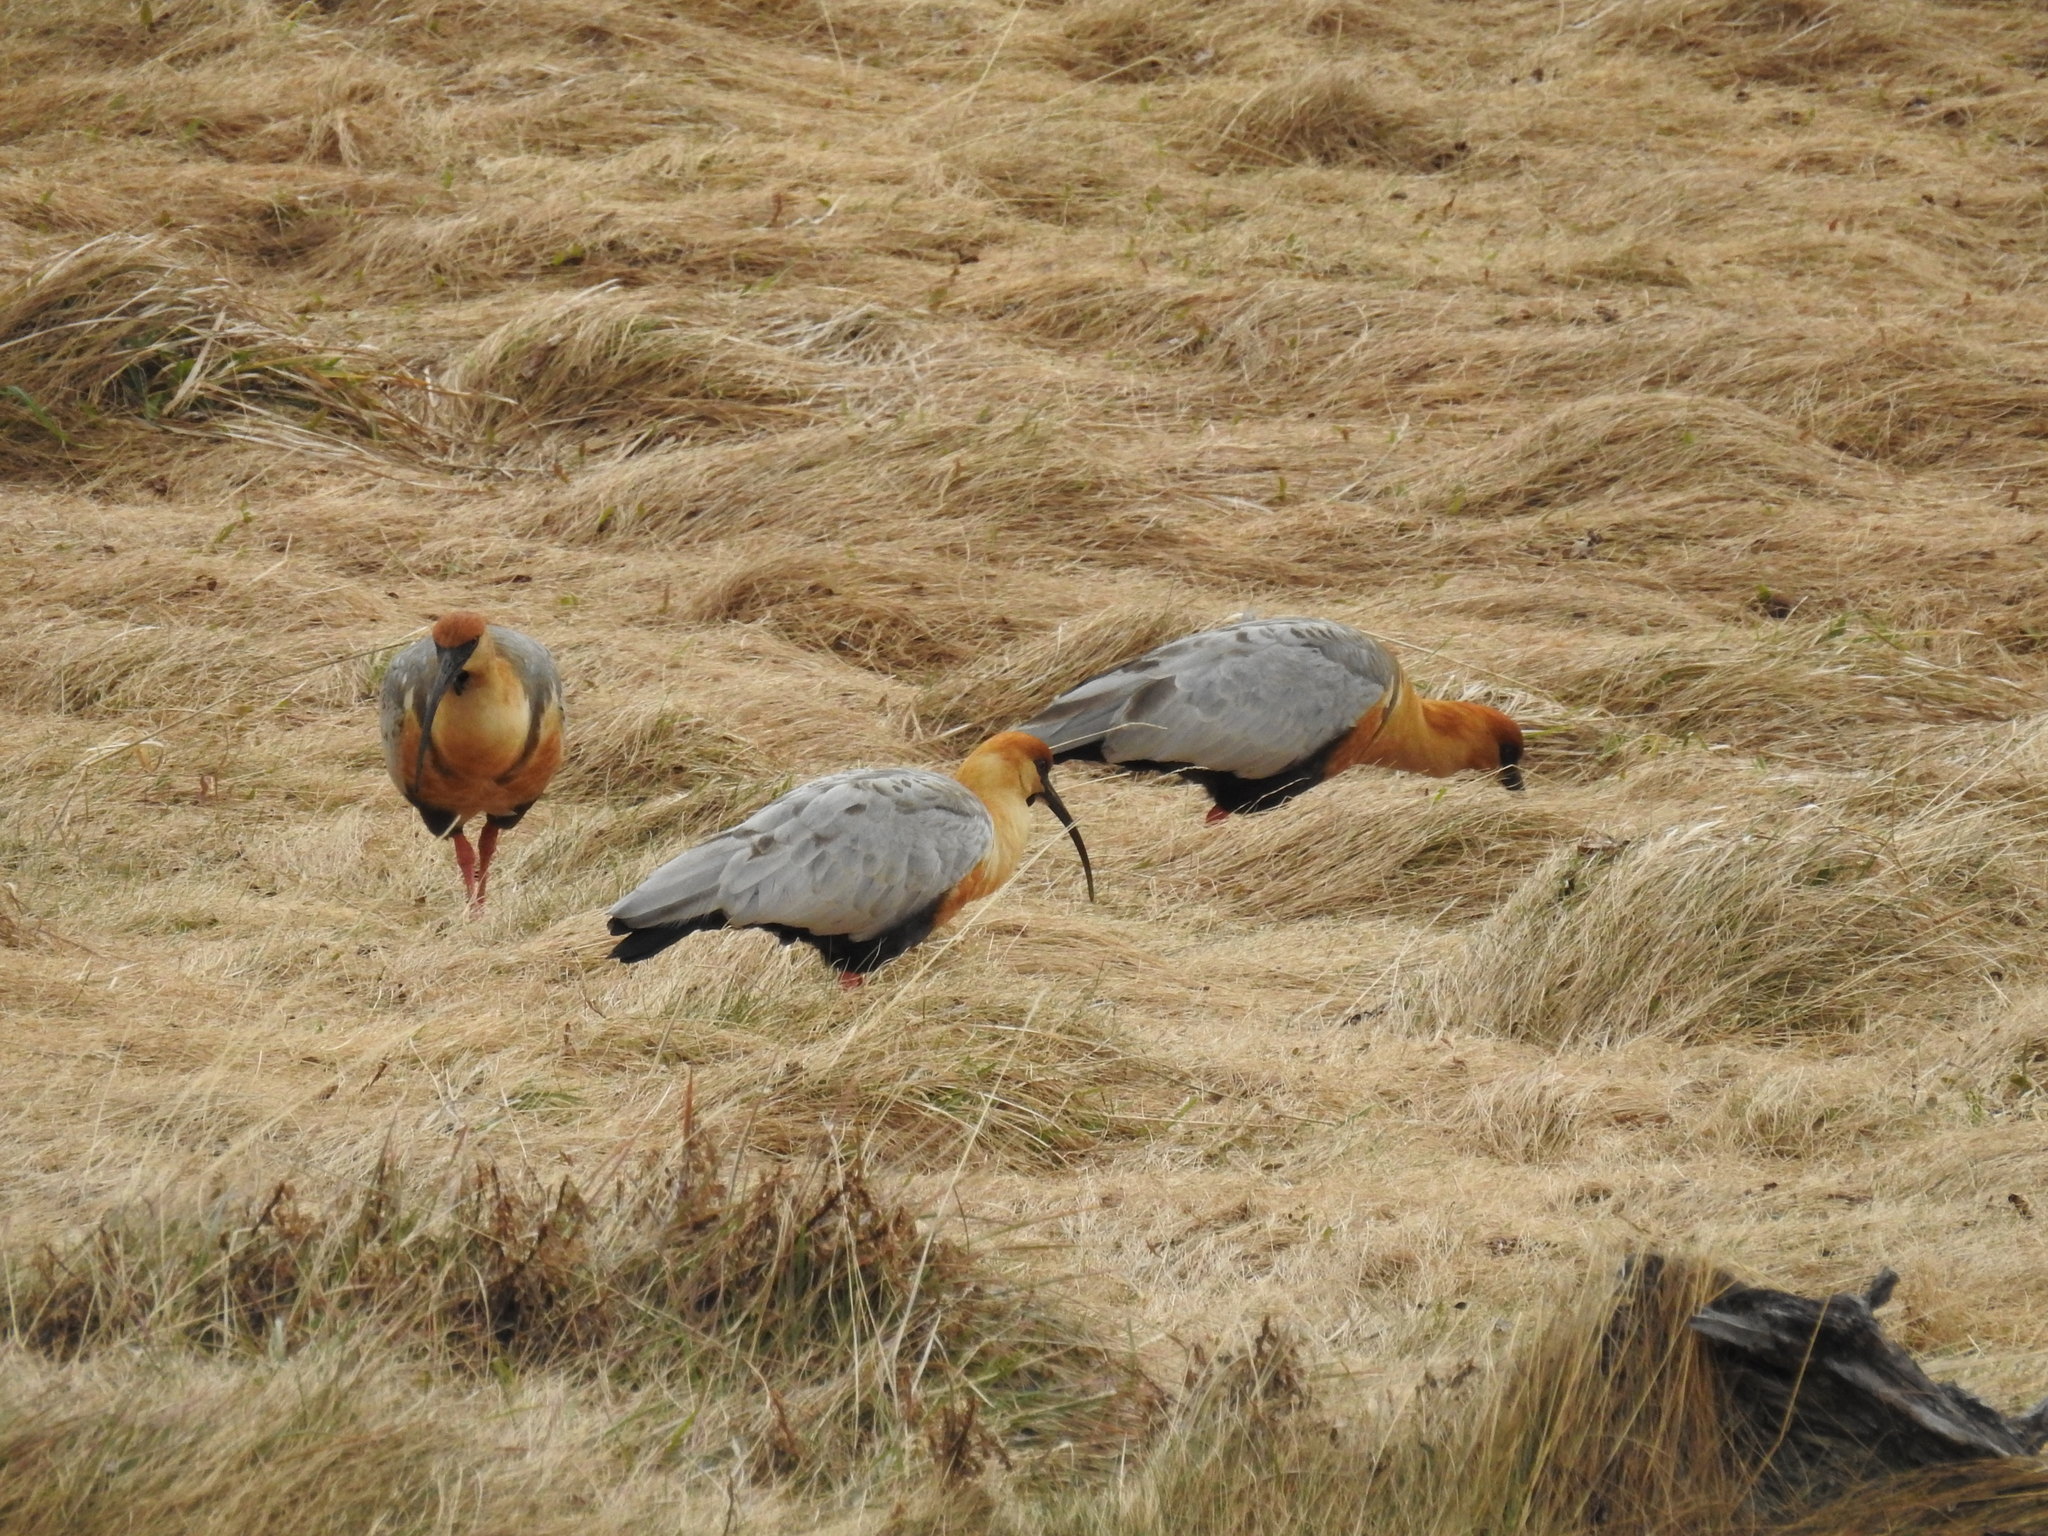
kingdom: Animalia
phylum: Chordata
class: Aves
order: Pelecaniformes
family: Threskiornithidae
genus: Theristicus
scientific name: Theristicus melanopis
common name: Black-faced ibis
